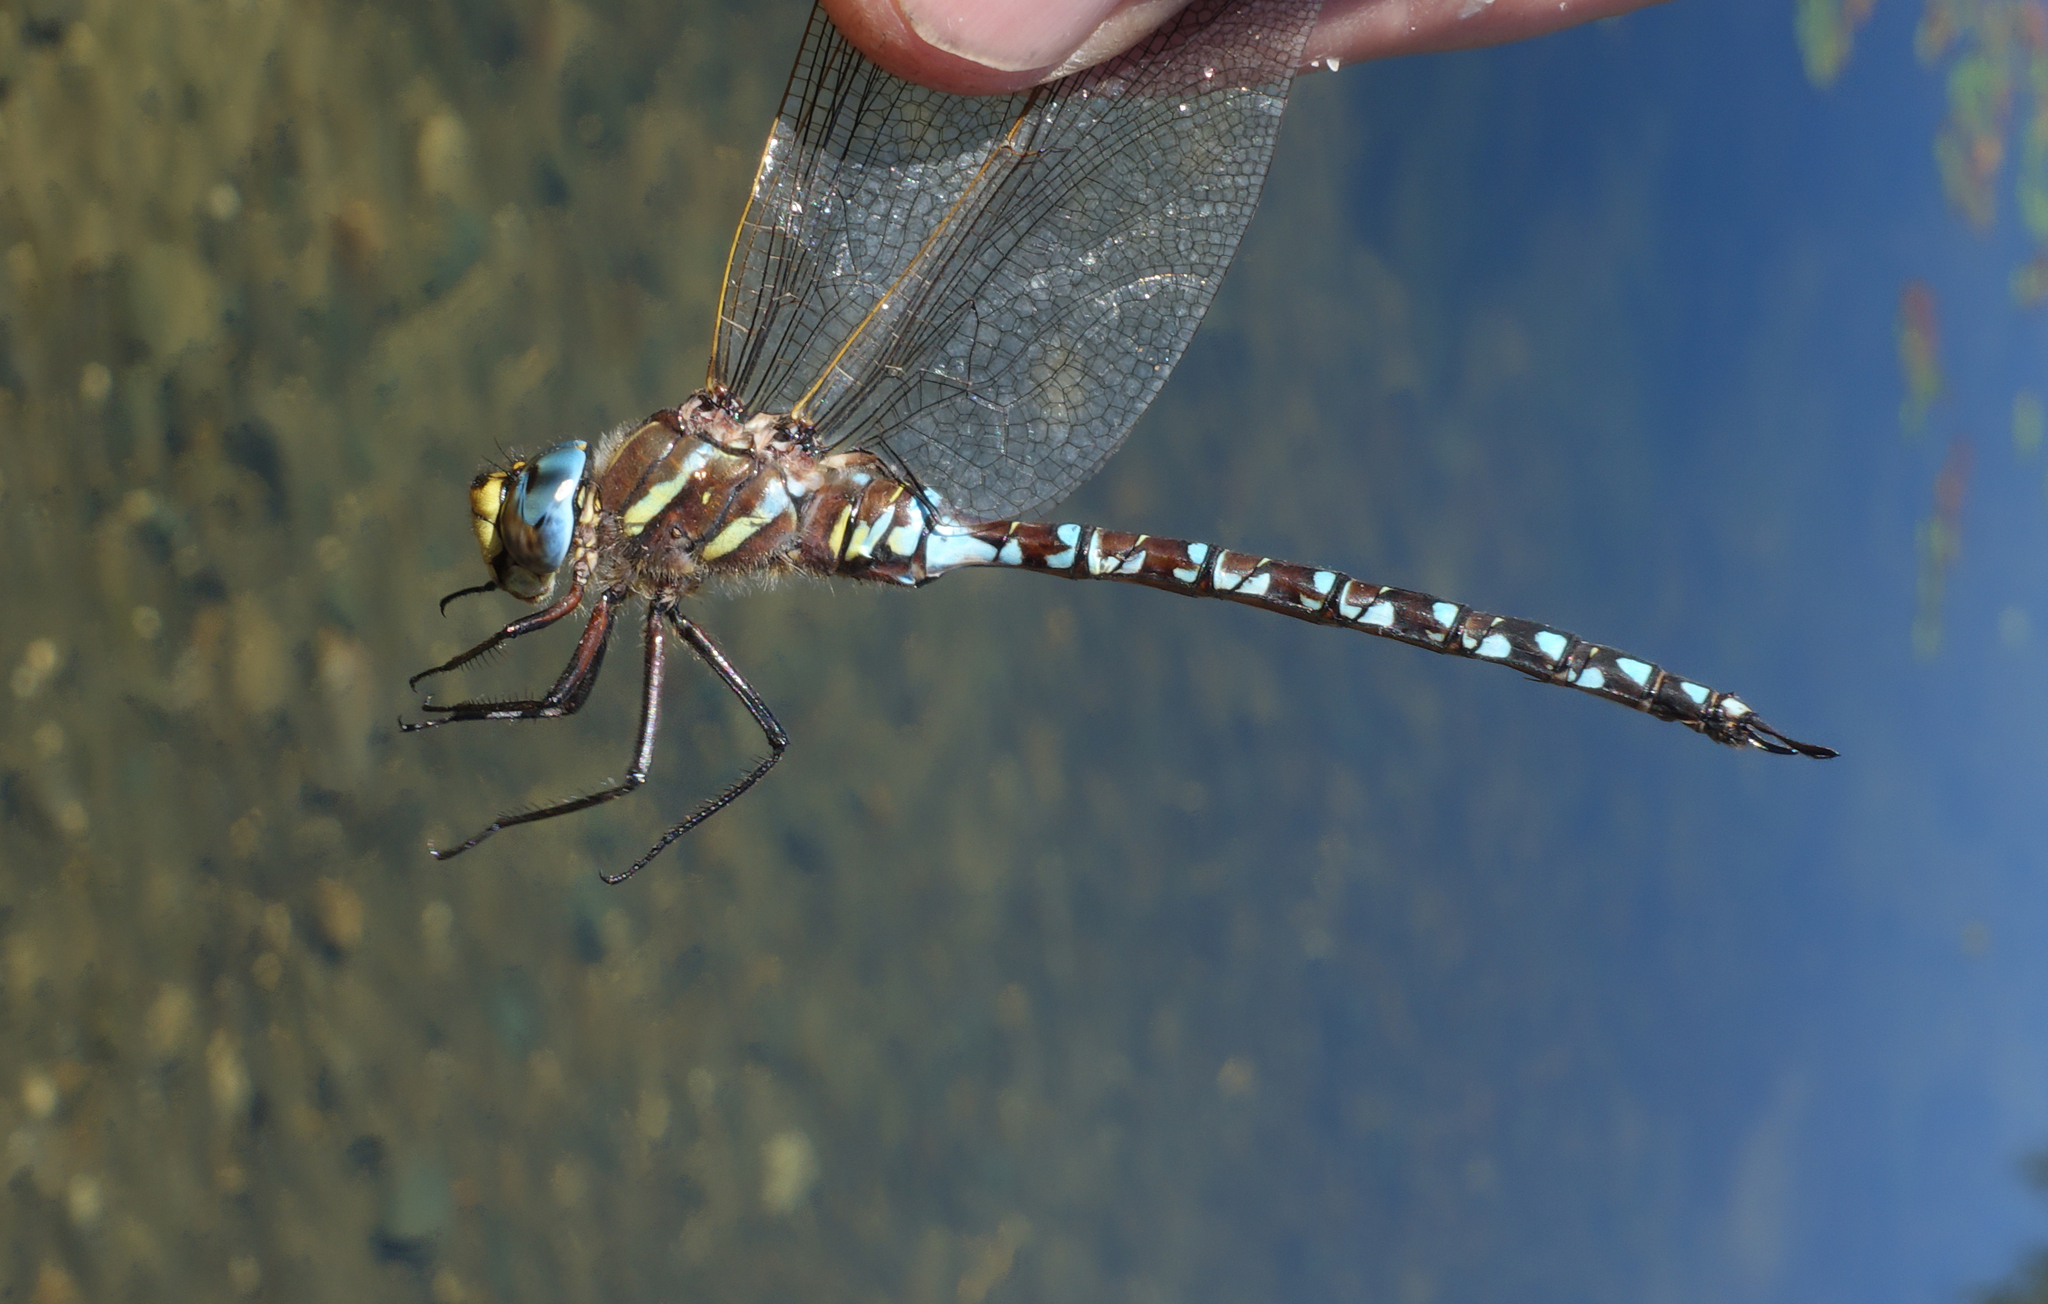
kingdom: Animalia
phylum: Arthropoda
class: Insecta
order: Odonata
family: Aeshnidae
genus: Aeshna
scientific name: Aeshna juncea
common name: Moorland hawker
